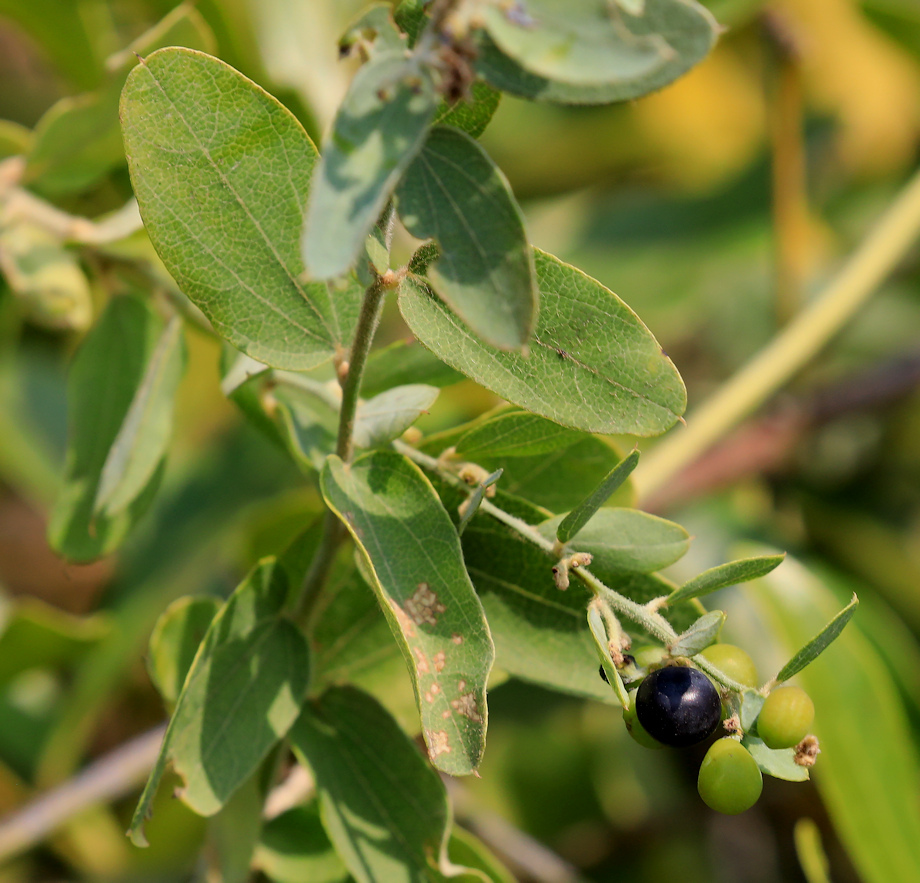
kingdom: Plantae
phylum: Tracheophyta
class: Magnoliopsida
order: Ranunculales
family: Menispermaceae
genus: Cocculus
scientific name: Cocculus hirsutus
